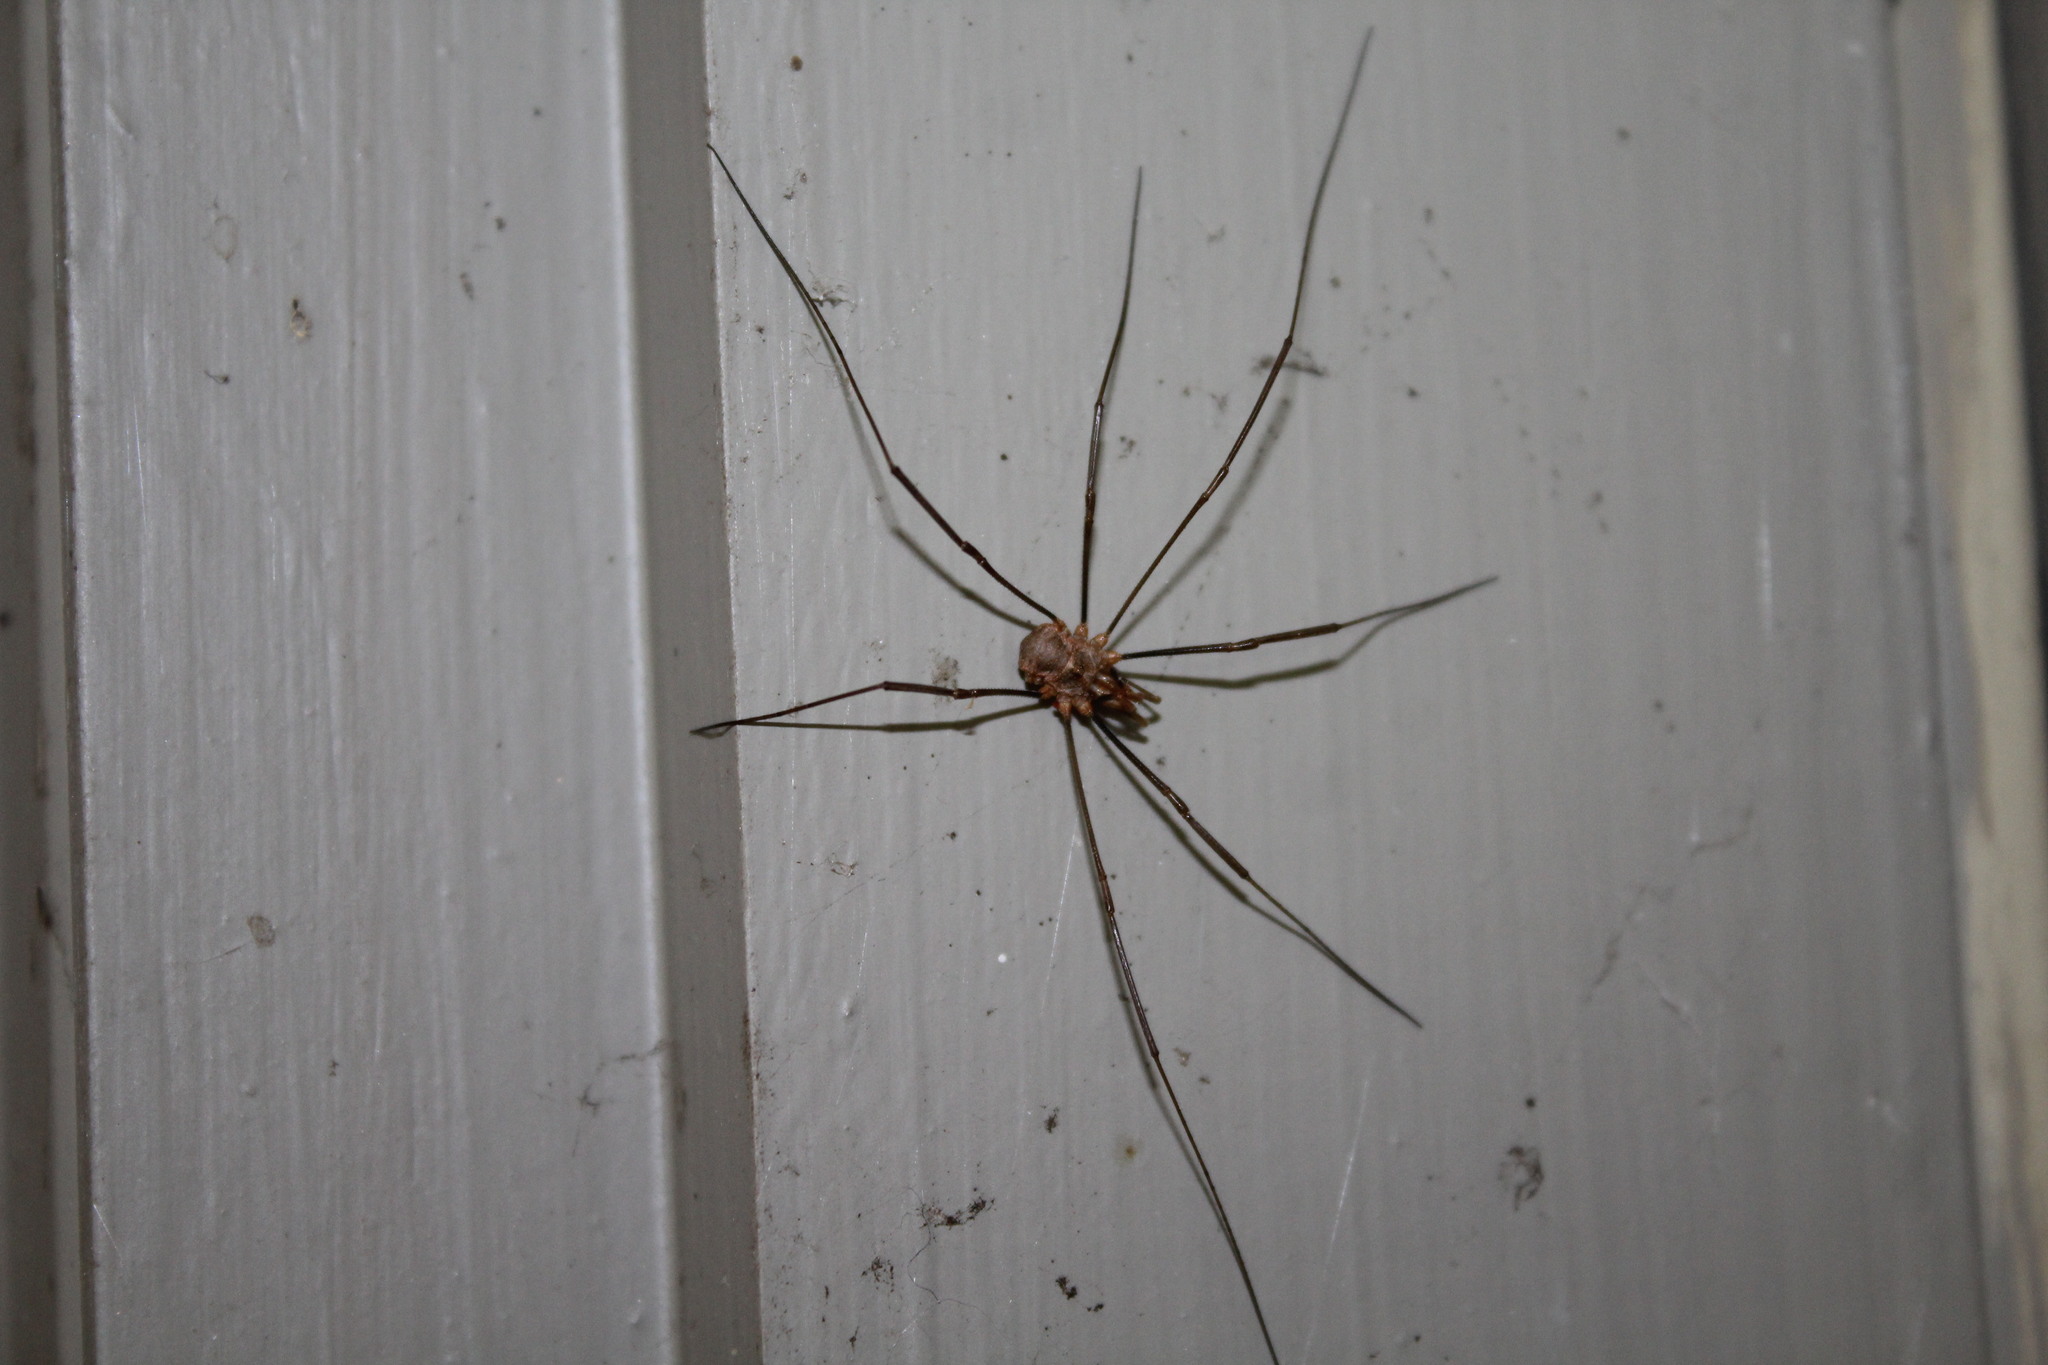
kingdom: Animalia
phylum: Arthropoda
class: Arachnida
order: Opiliones
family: Phalangiidae
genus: Phalangium
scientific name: Phalangium opilio
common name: Daddy longleg
